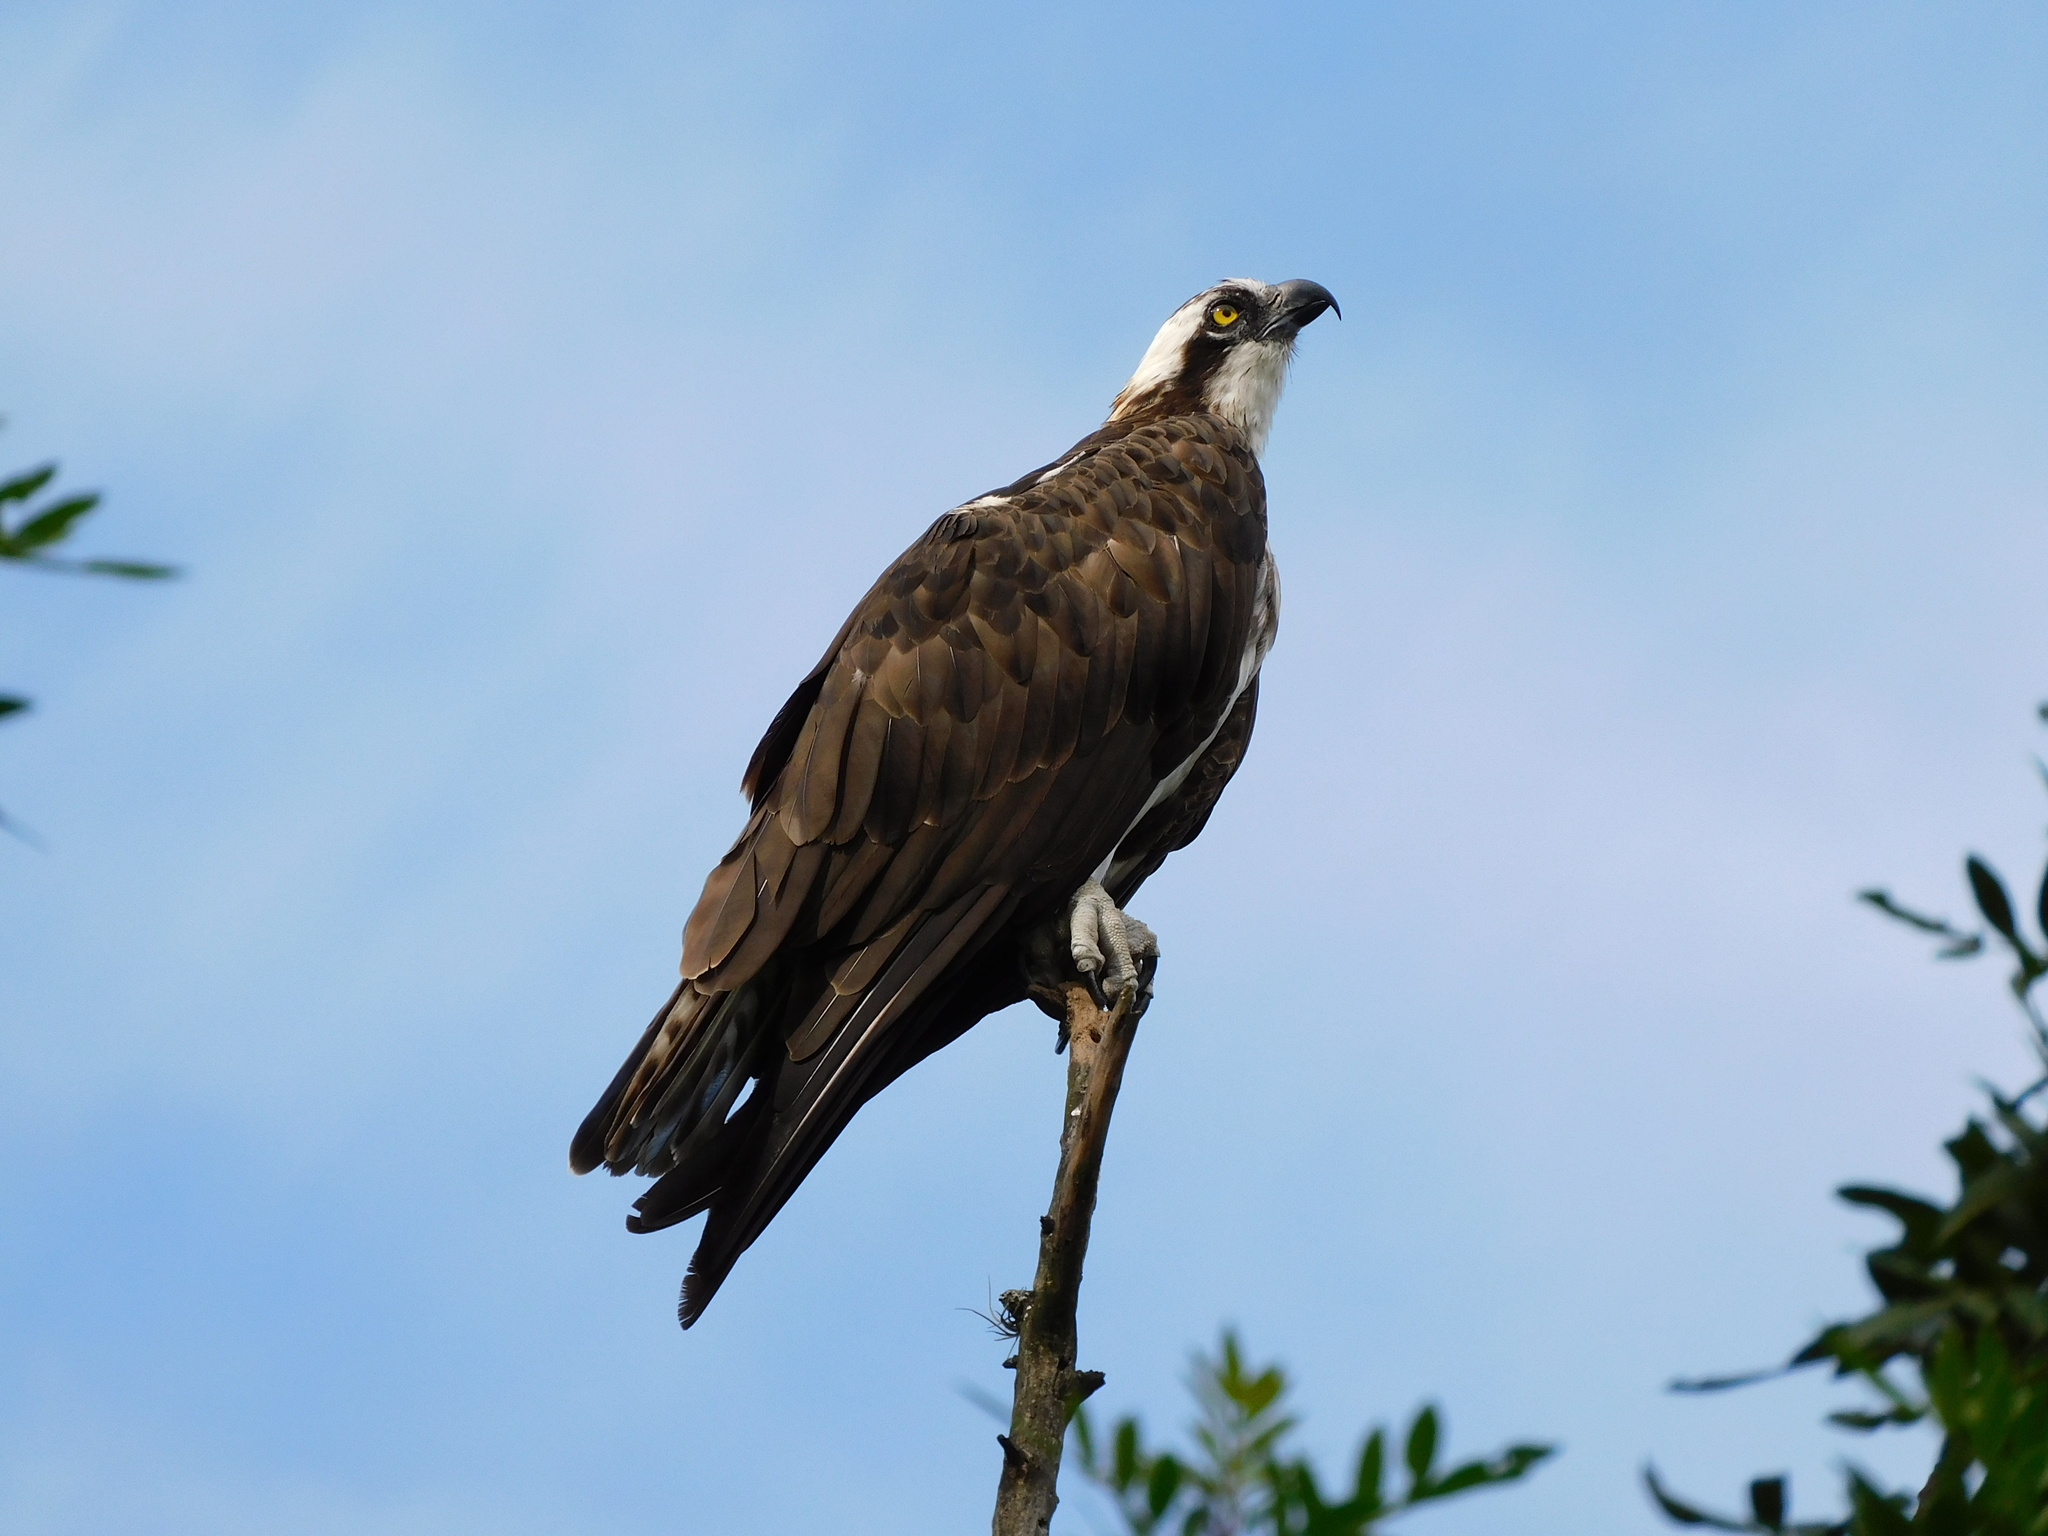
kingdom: Animalia
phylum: Chordata
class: Aves
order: Accipitriformes
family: Pandionidae
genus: Pandion
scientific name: Pandion haliaetus
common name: Osprey
